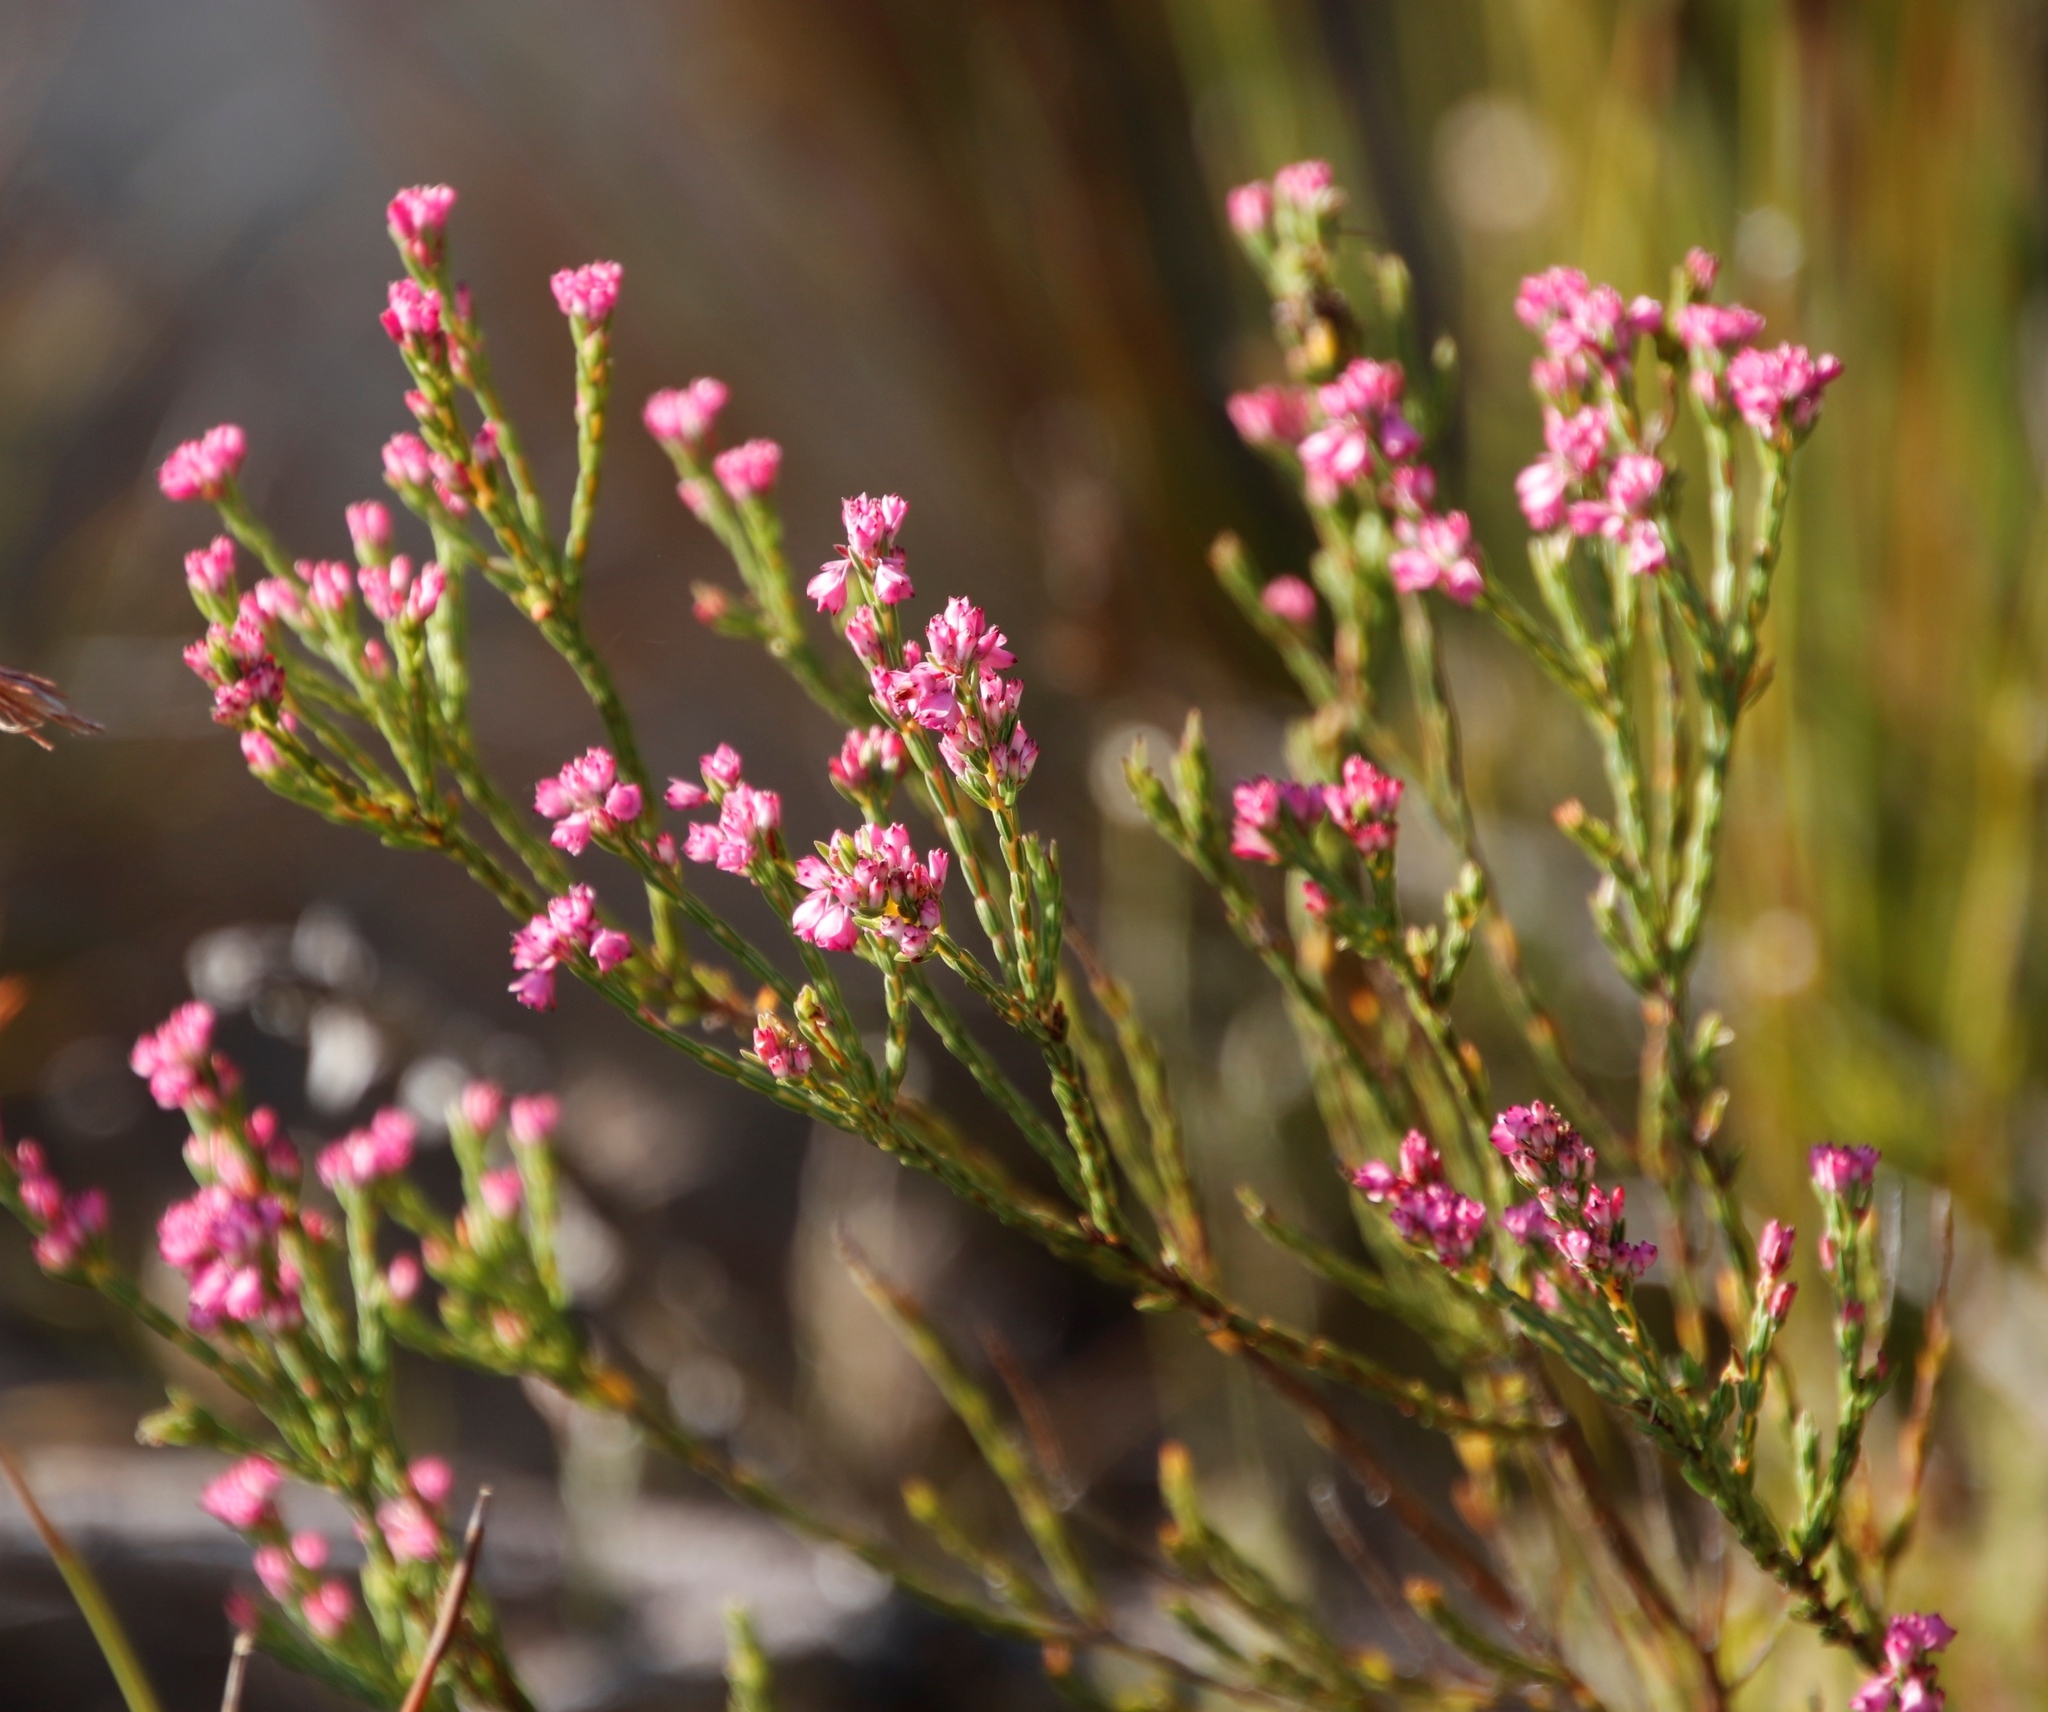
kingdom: Plantae
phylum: Tracheophyta
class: Magnoliopsida
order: Ericales
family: Ericaceae
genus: Erica
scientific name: Erica corifolia
